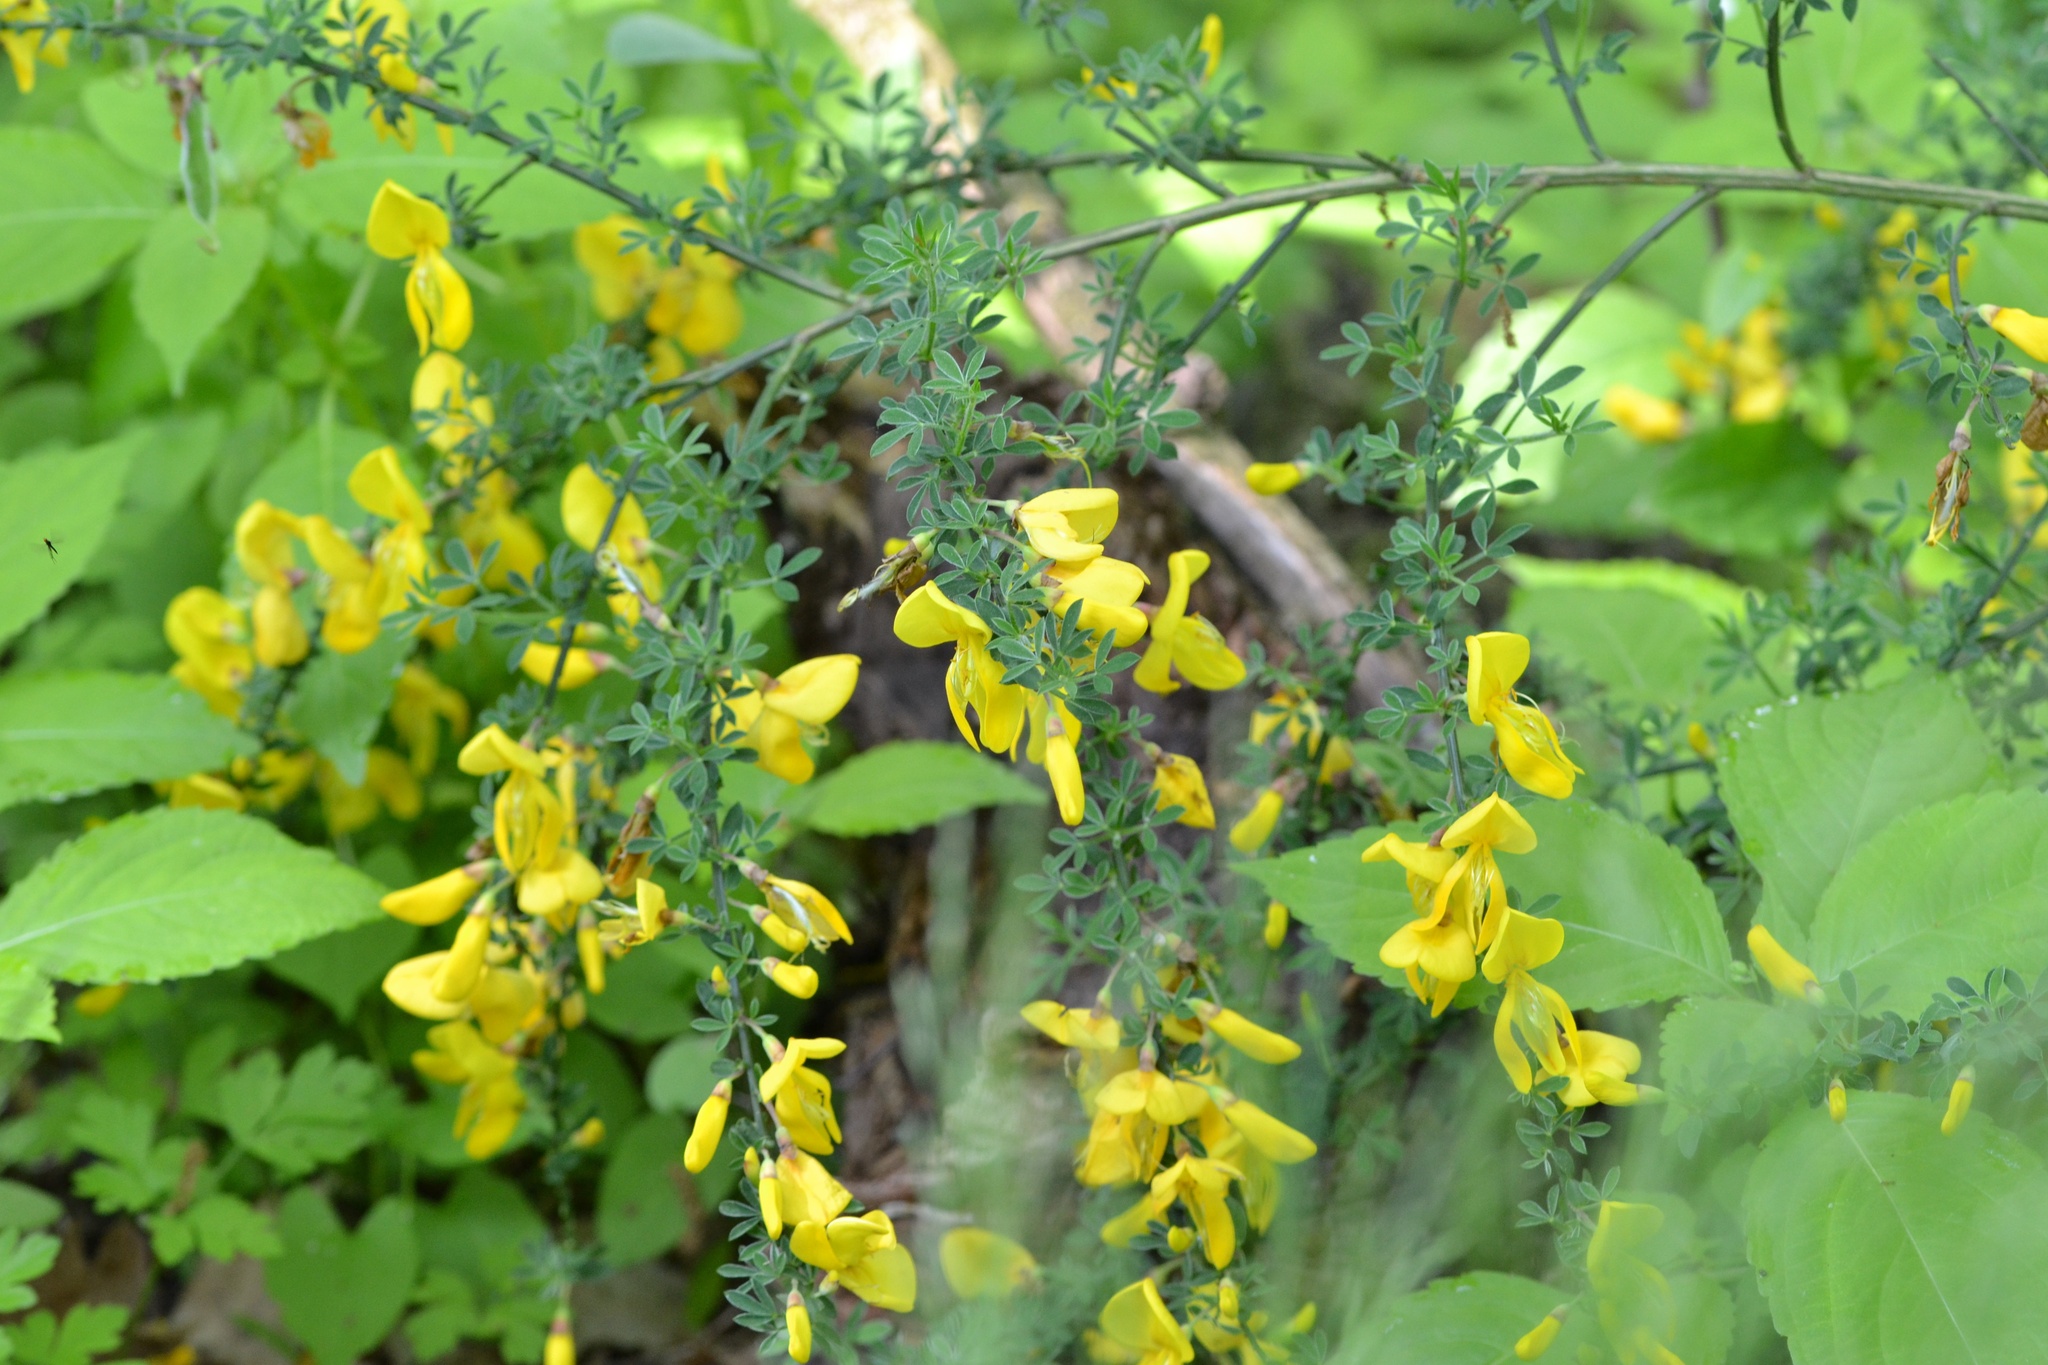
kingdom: Plantae
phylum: Tracheophyta
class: Magnoliopsida
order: Fabales
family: Fabaceae
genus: Cytisus
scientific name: Cytisus scoparius
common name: Scotch broom
